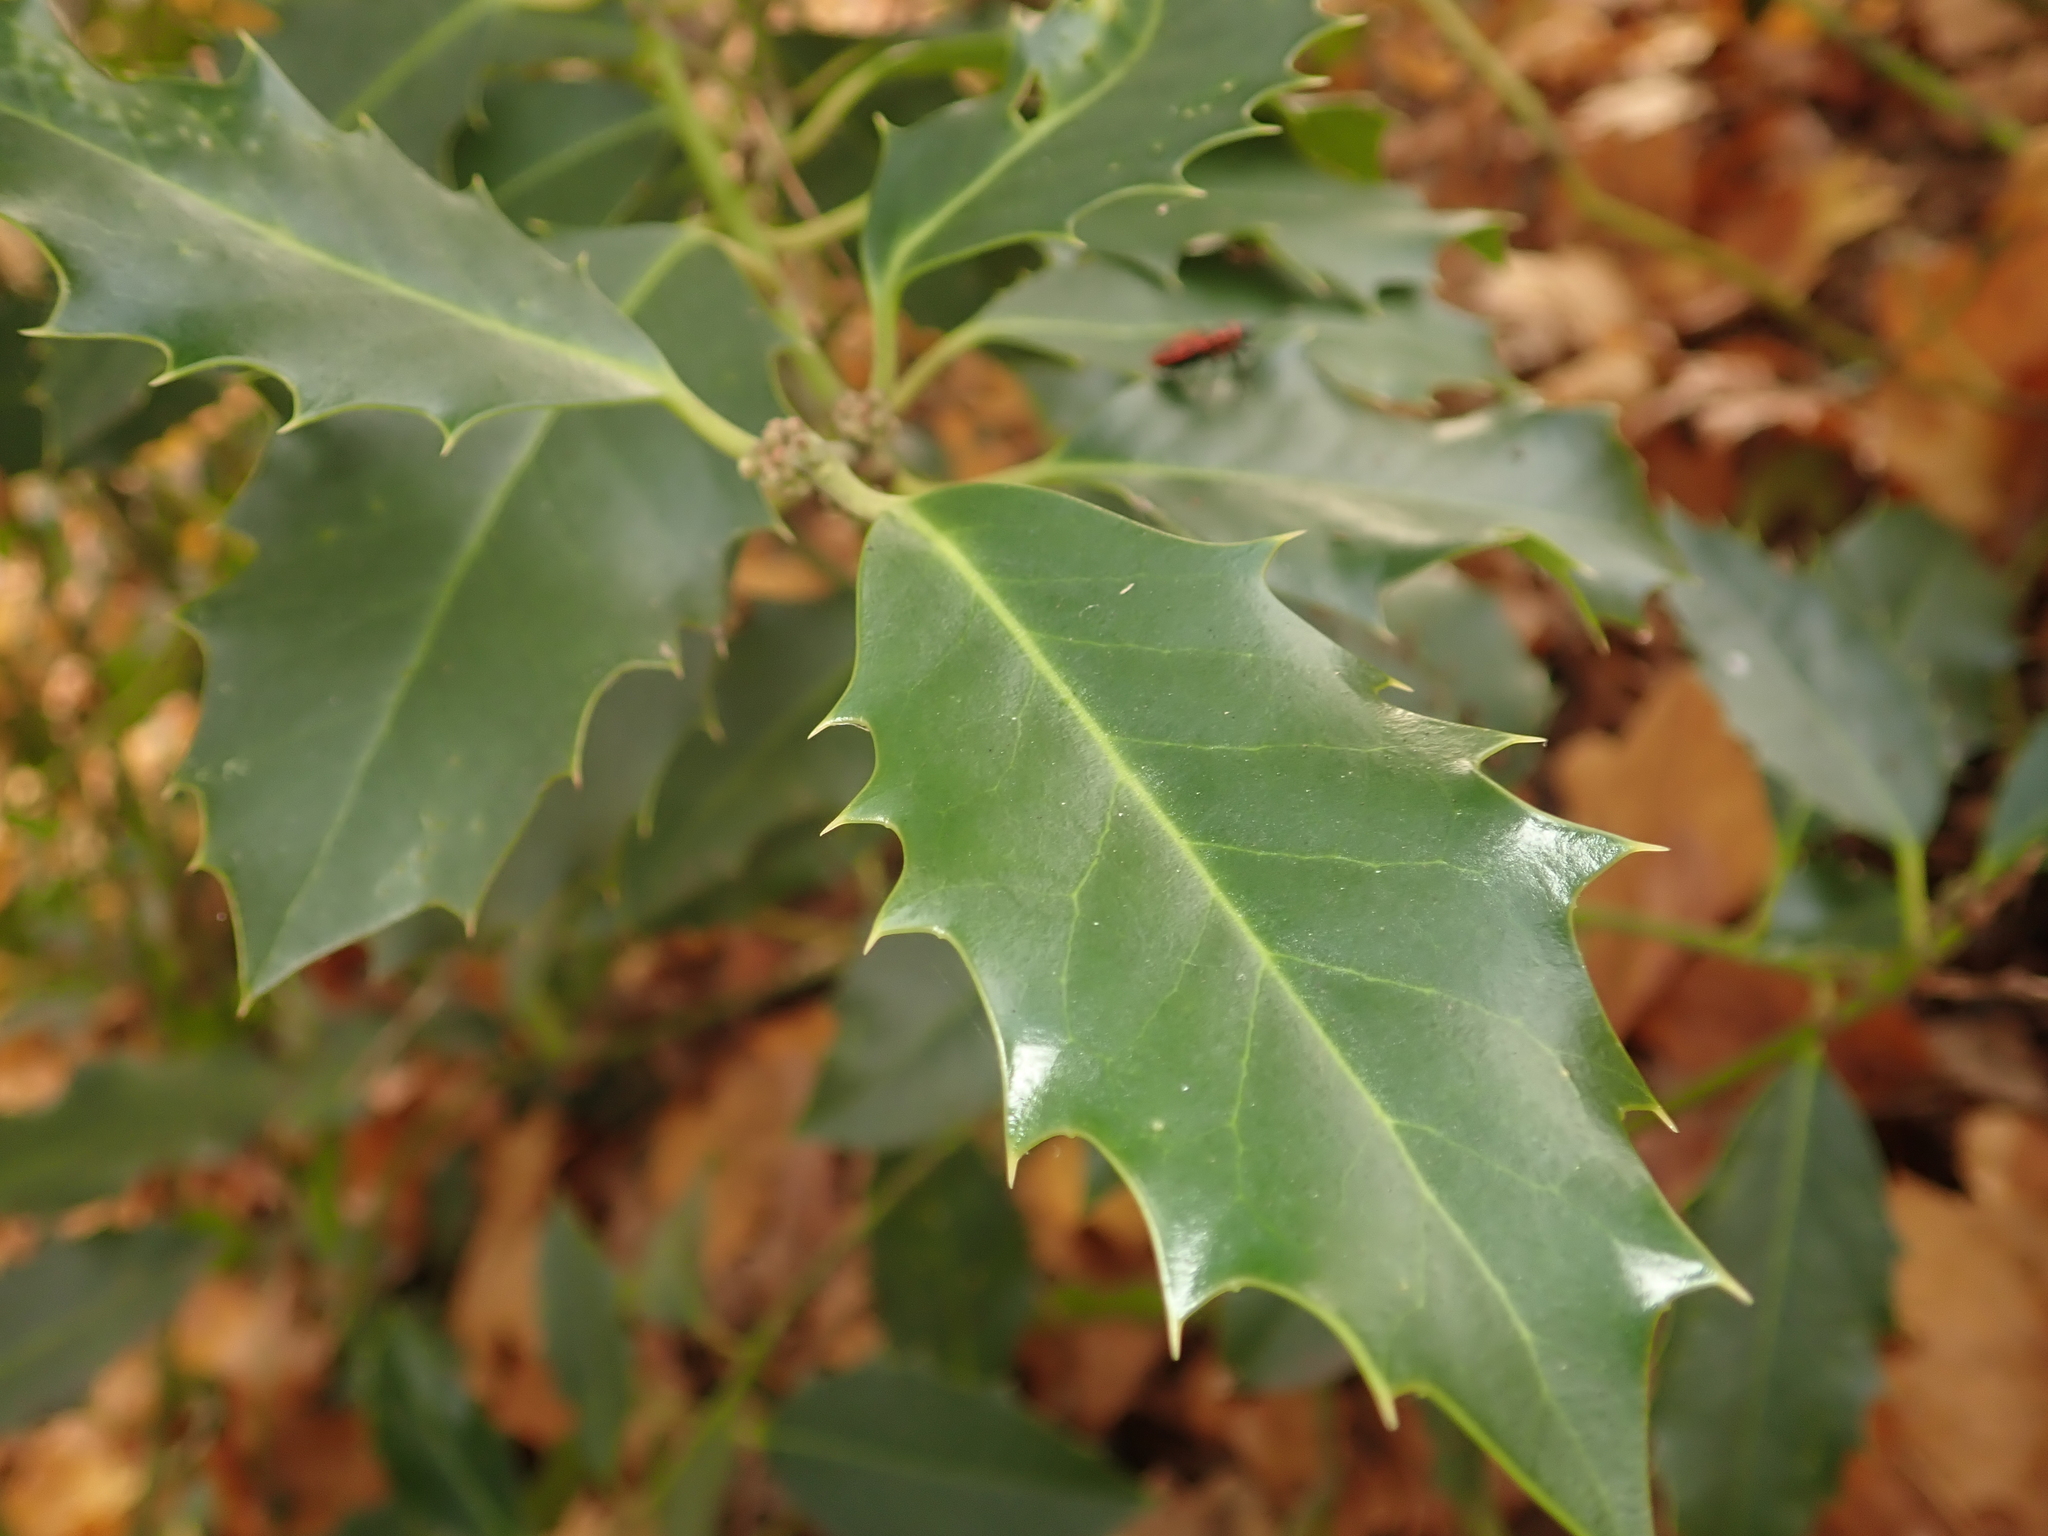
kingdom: Plantae
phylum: Tracheophyta
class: Magnoliopsida
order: Aquifoliales
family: Aquifoliaceae
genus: Ilex
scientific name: Ilex aquifolium
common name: English holly
